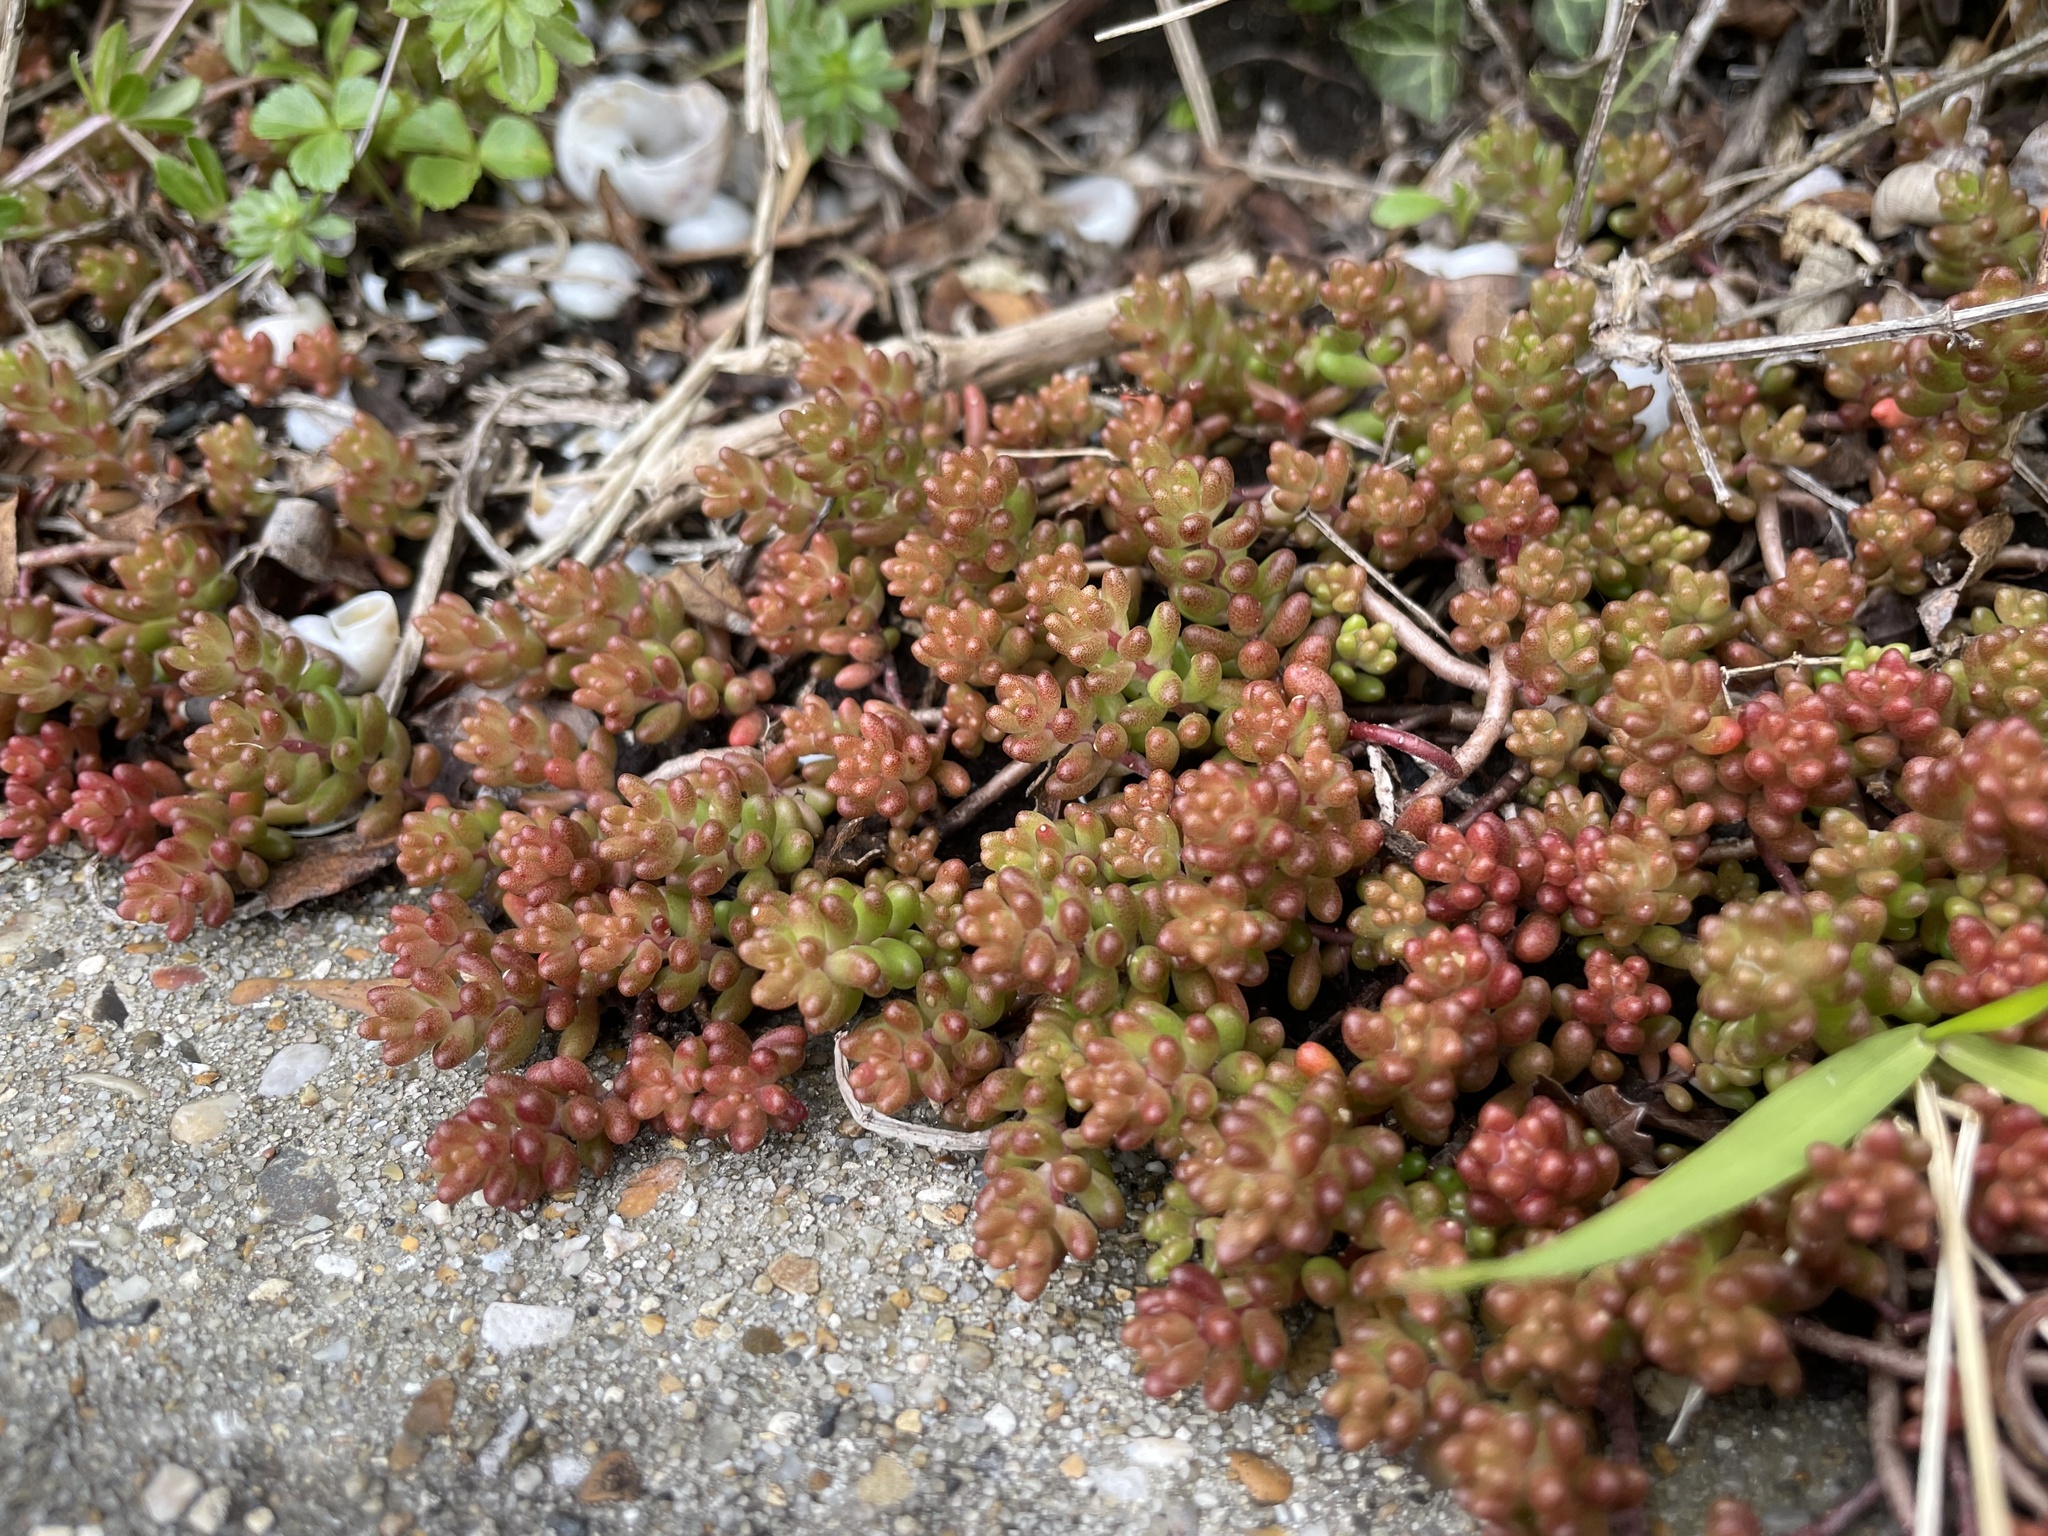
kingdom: Plantae
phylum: Tracheophyta
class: Magnoliopsida
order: Saxifragales
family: Crassulaceae
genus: Sedum
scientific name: Sedum album
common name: White stonecrop
